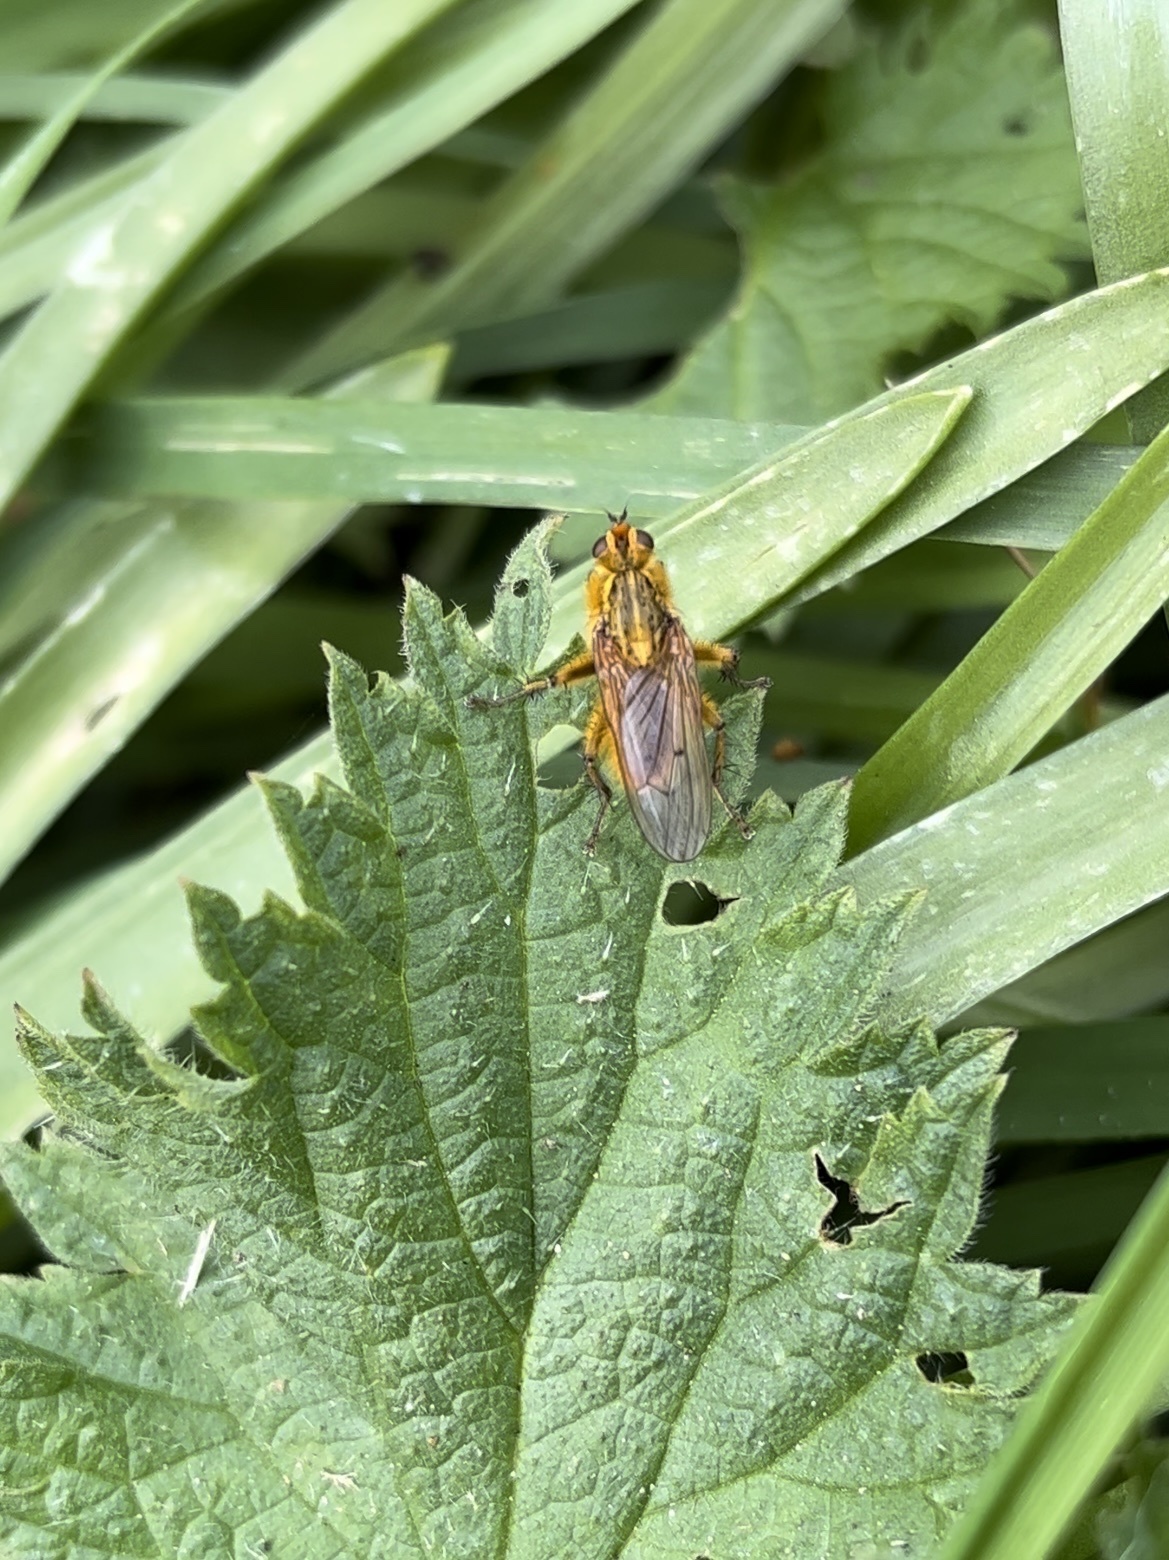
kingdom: Animalia
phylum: Arthropoda
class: Insecta
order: Diptera
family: Scathophagidae
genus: Scathophaga
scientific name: Scathophaga stercoraria
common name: Yellow dung fly
